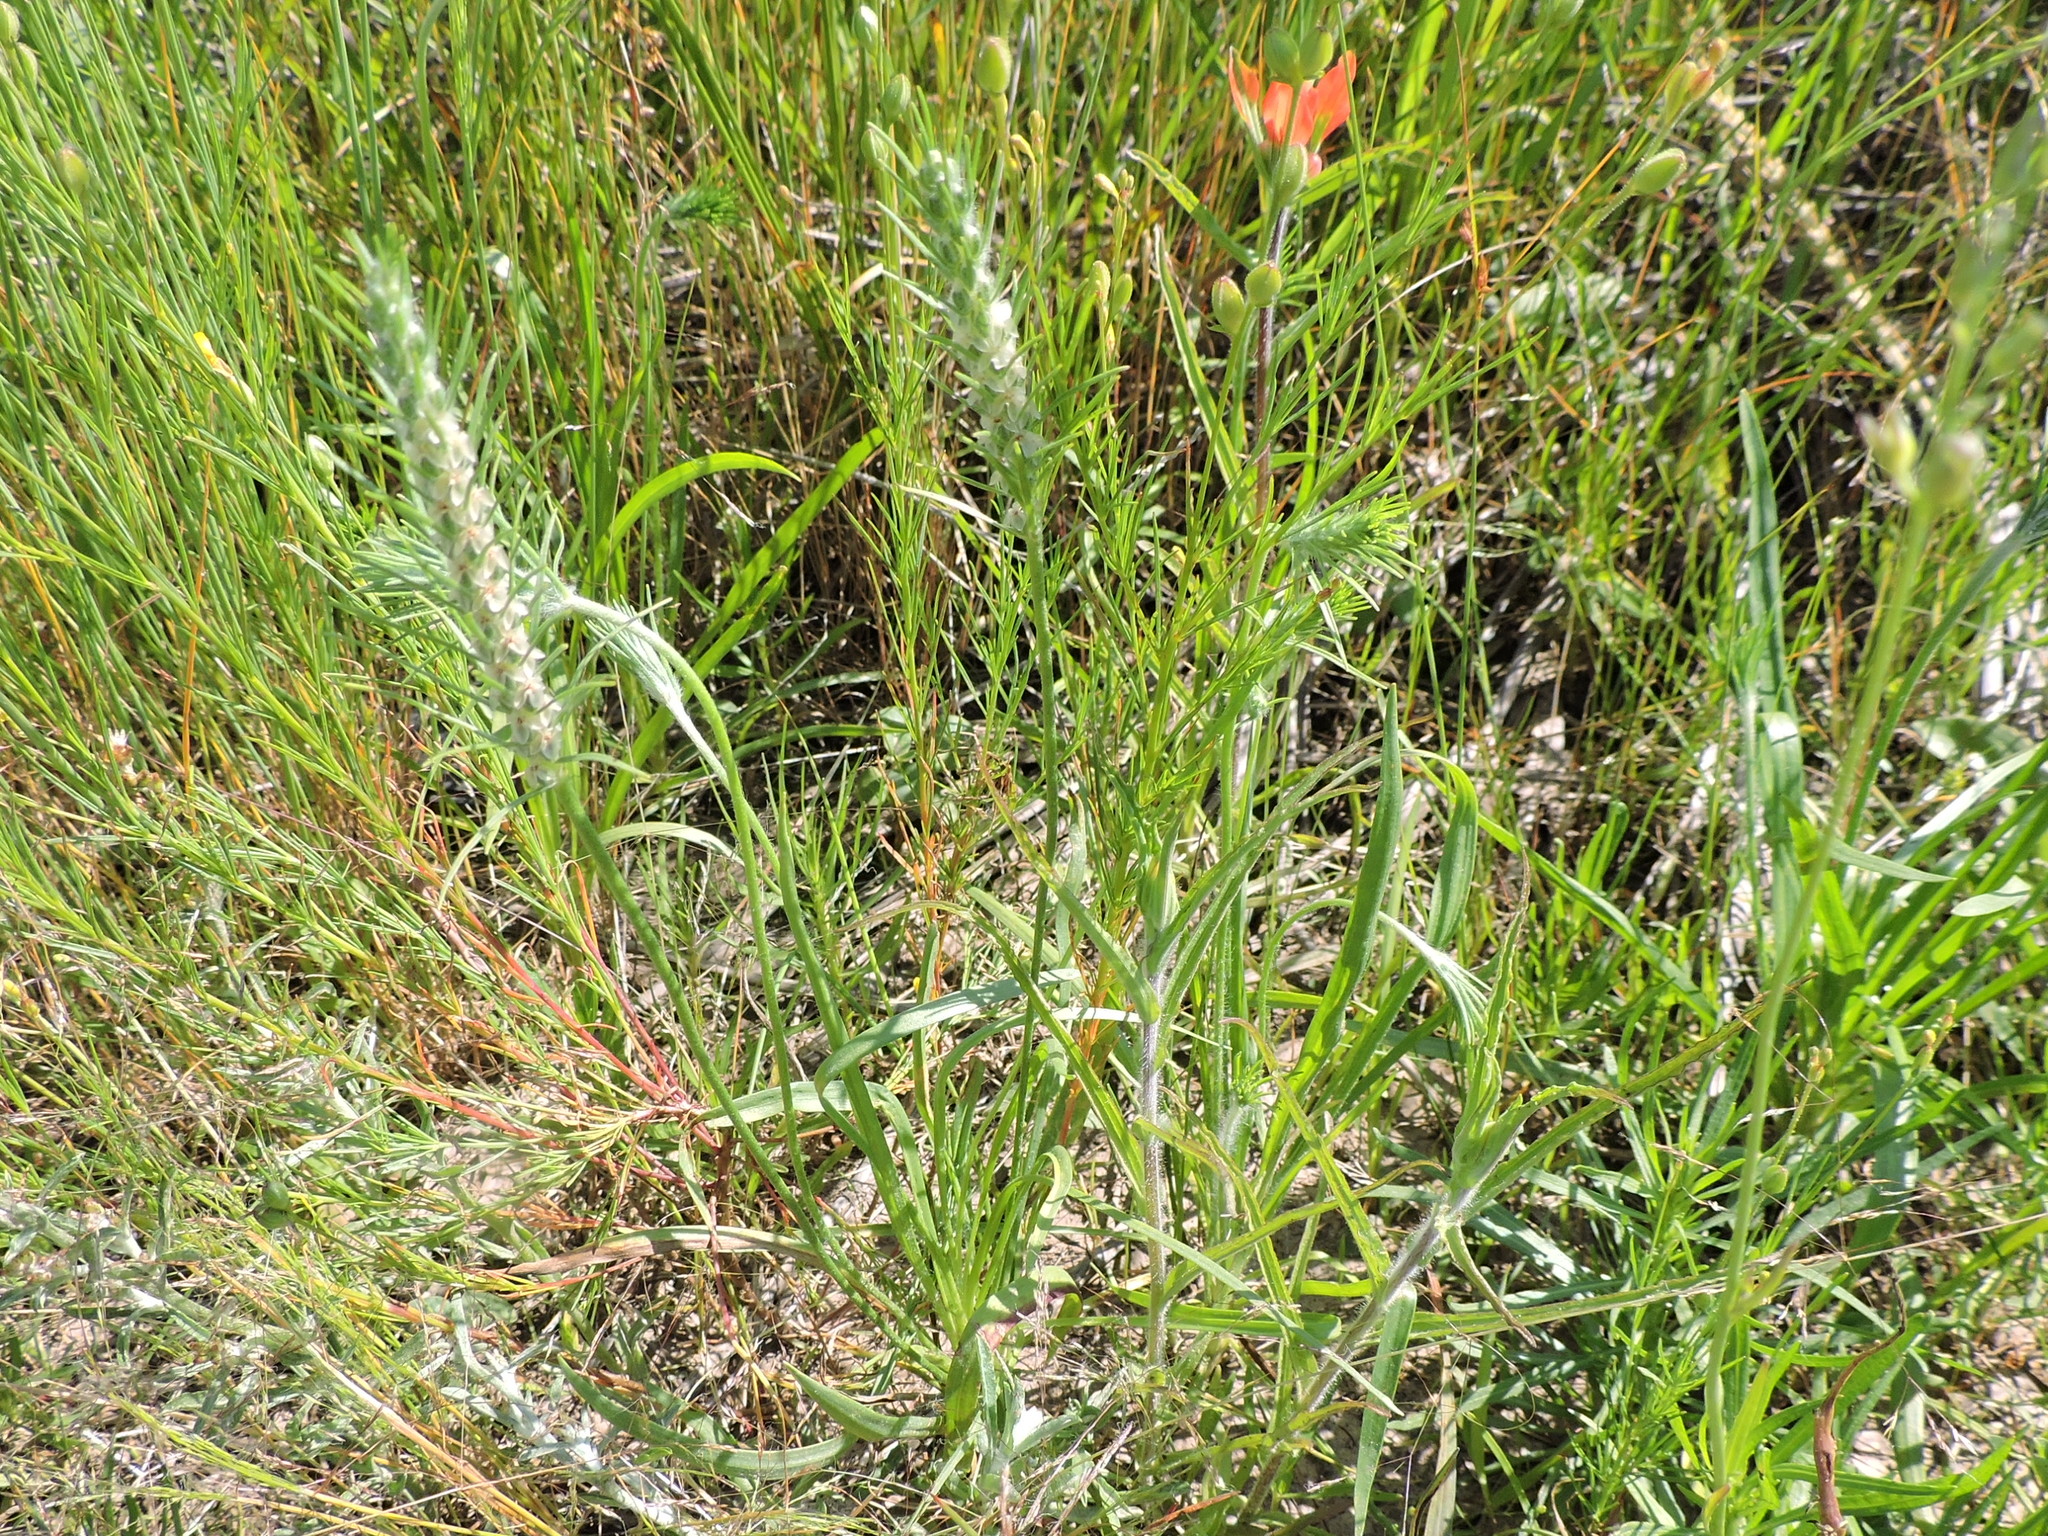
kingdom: Plantae
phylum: Tracheophyta
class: Magnoliopsida
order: Lamiales
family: Plantaginaceae
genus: Plantago
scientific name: Plantago aristata
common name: Bracted plantain
